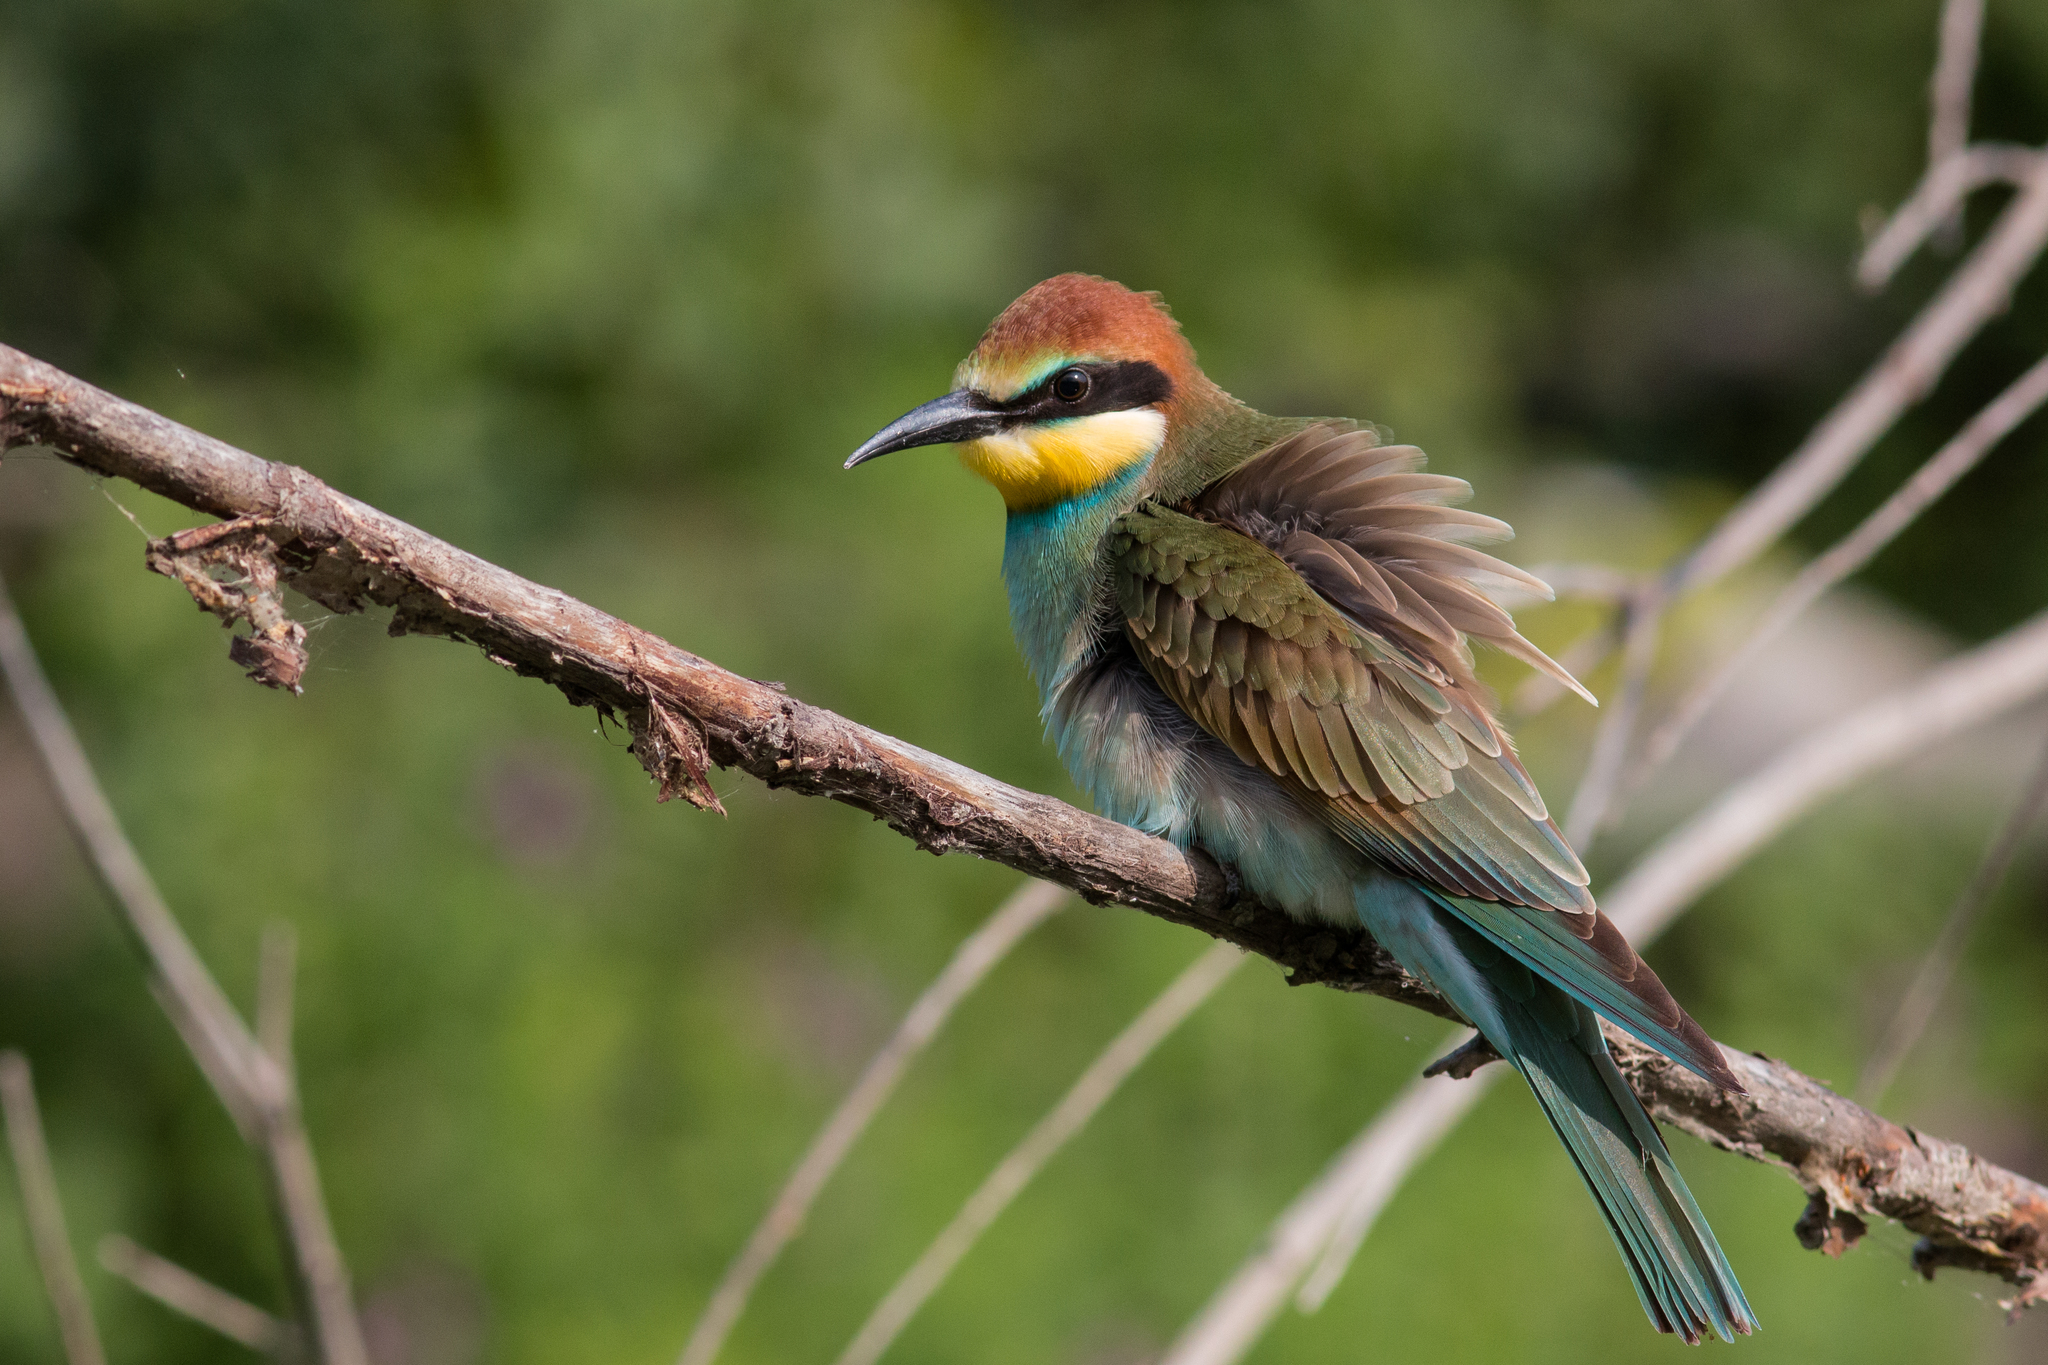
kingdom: Animalia
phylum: Chordata
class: Aves
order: Coraciiformes
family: Meropidae
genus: Merops
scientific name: Merops apiaster
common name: European bee-eater
